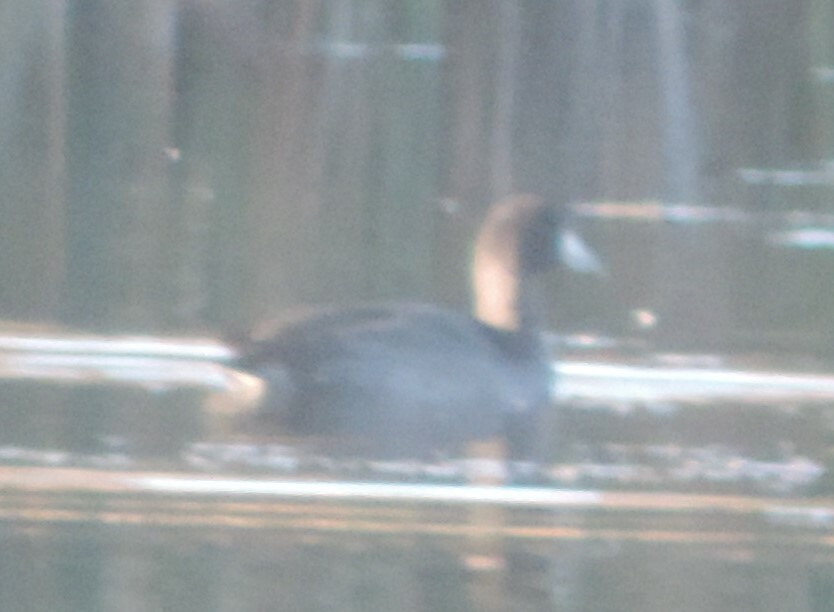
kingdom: Animalia
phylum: Chordata
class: Aves
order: Gruiformes
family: Rallidae
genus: Fulica
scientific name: Fulica americana
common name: American coot
